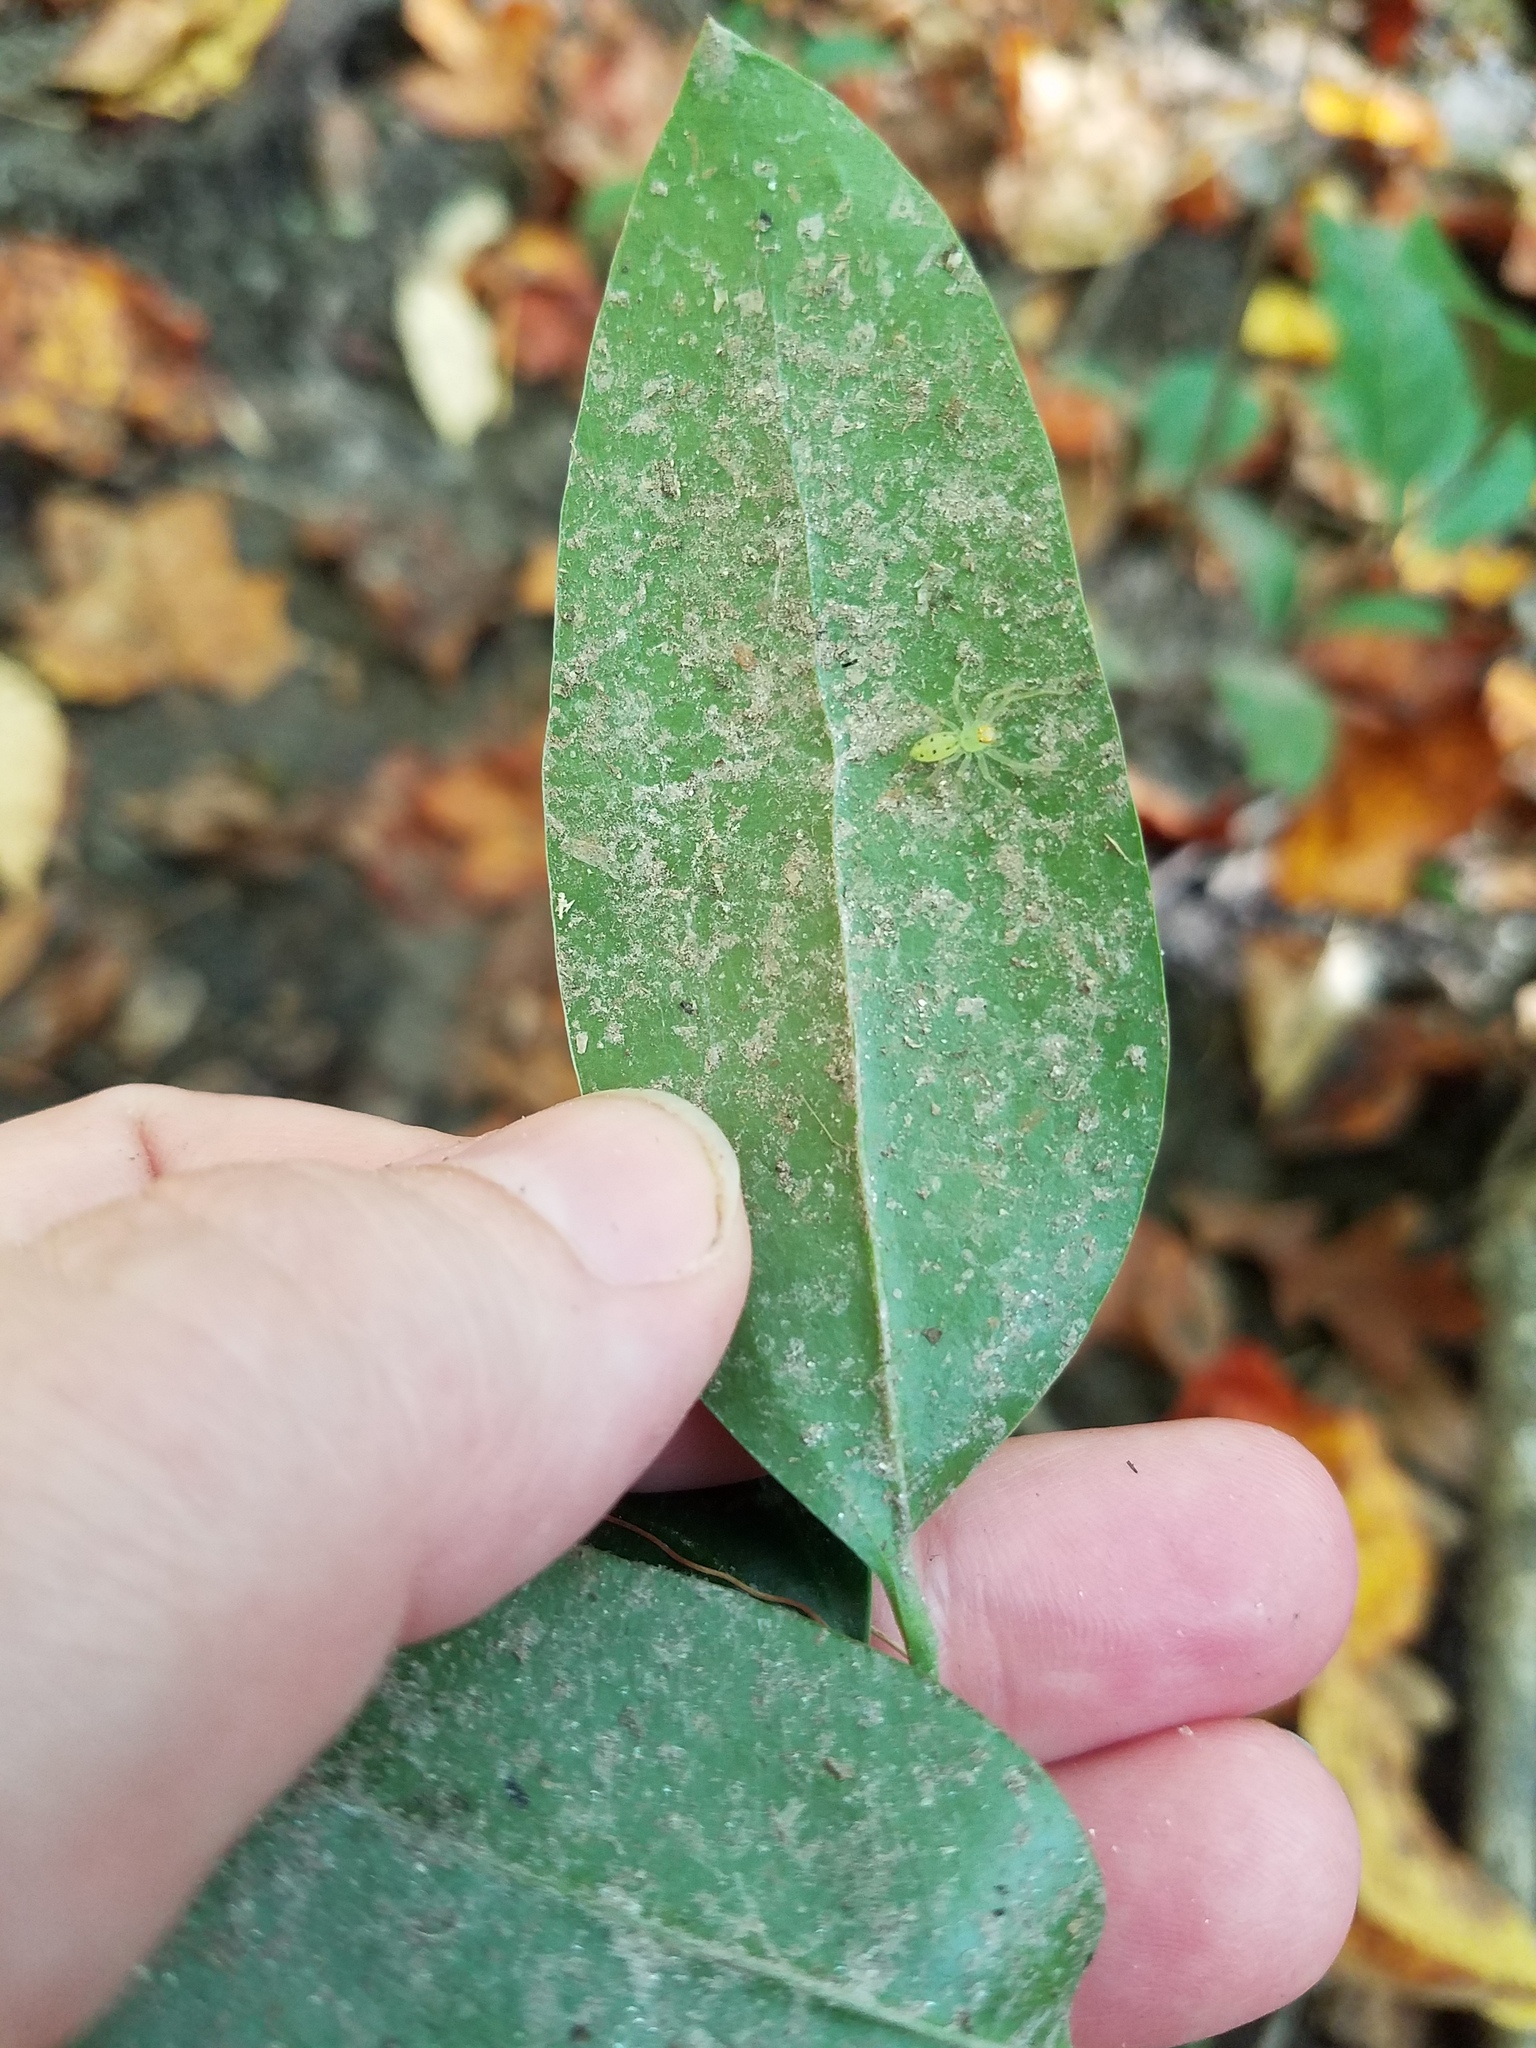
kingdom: Animalia
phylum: Arthropoda
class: Arachnida
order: Araneae
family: Salticidae
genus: Lyssomanes
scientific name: Lyssomanes viridis
